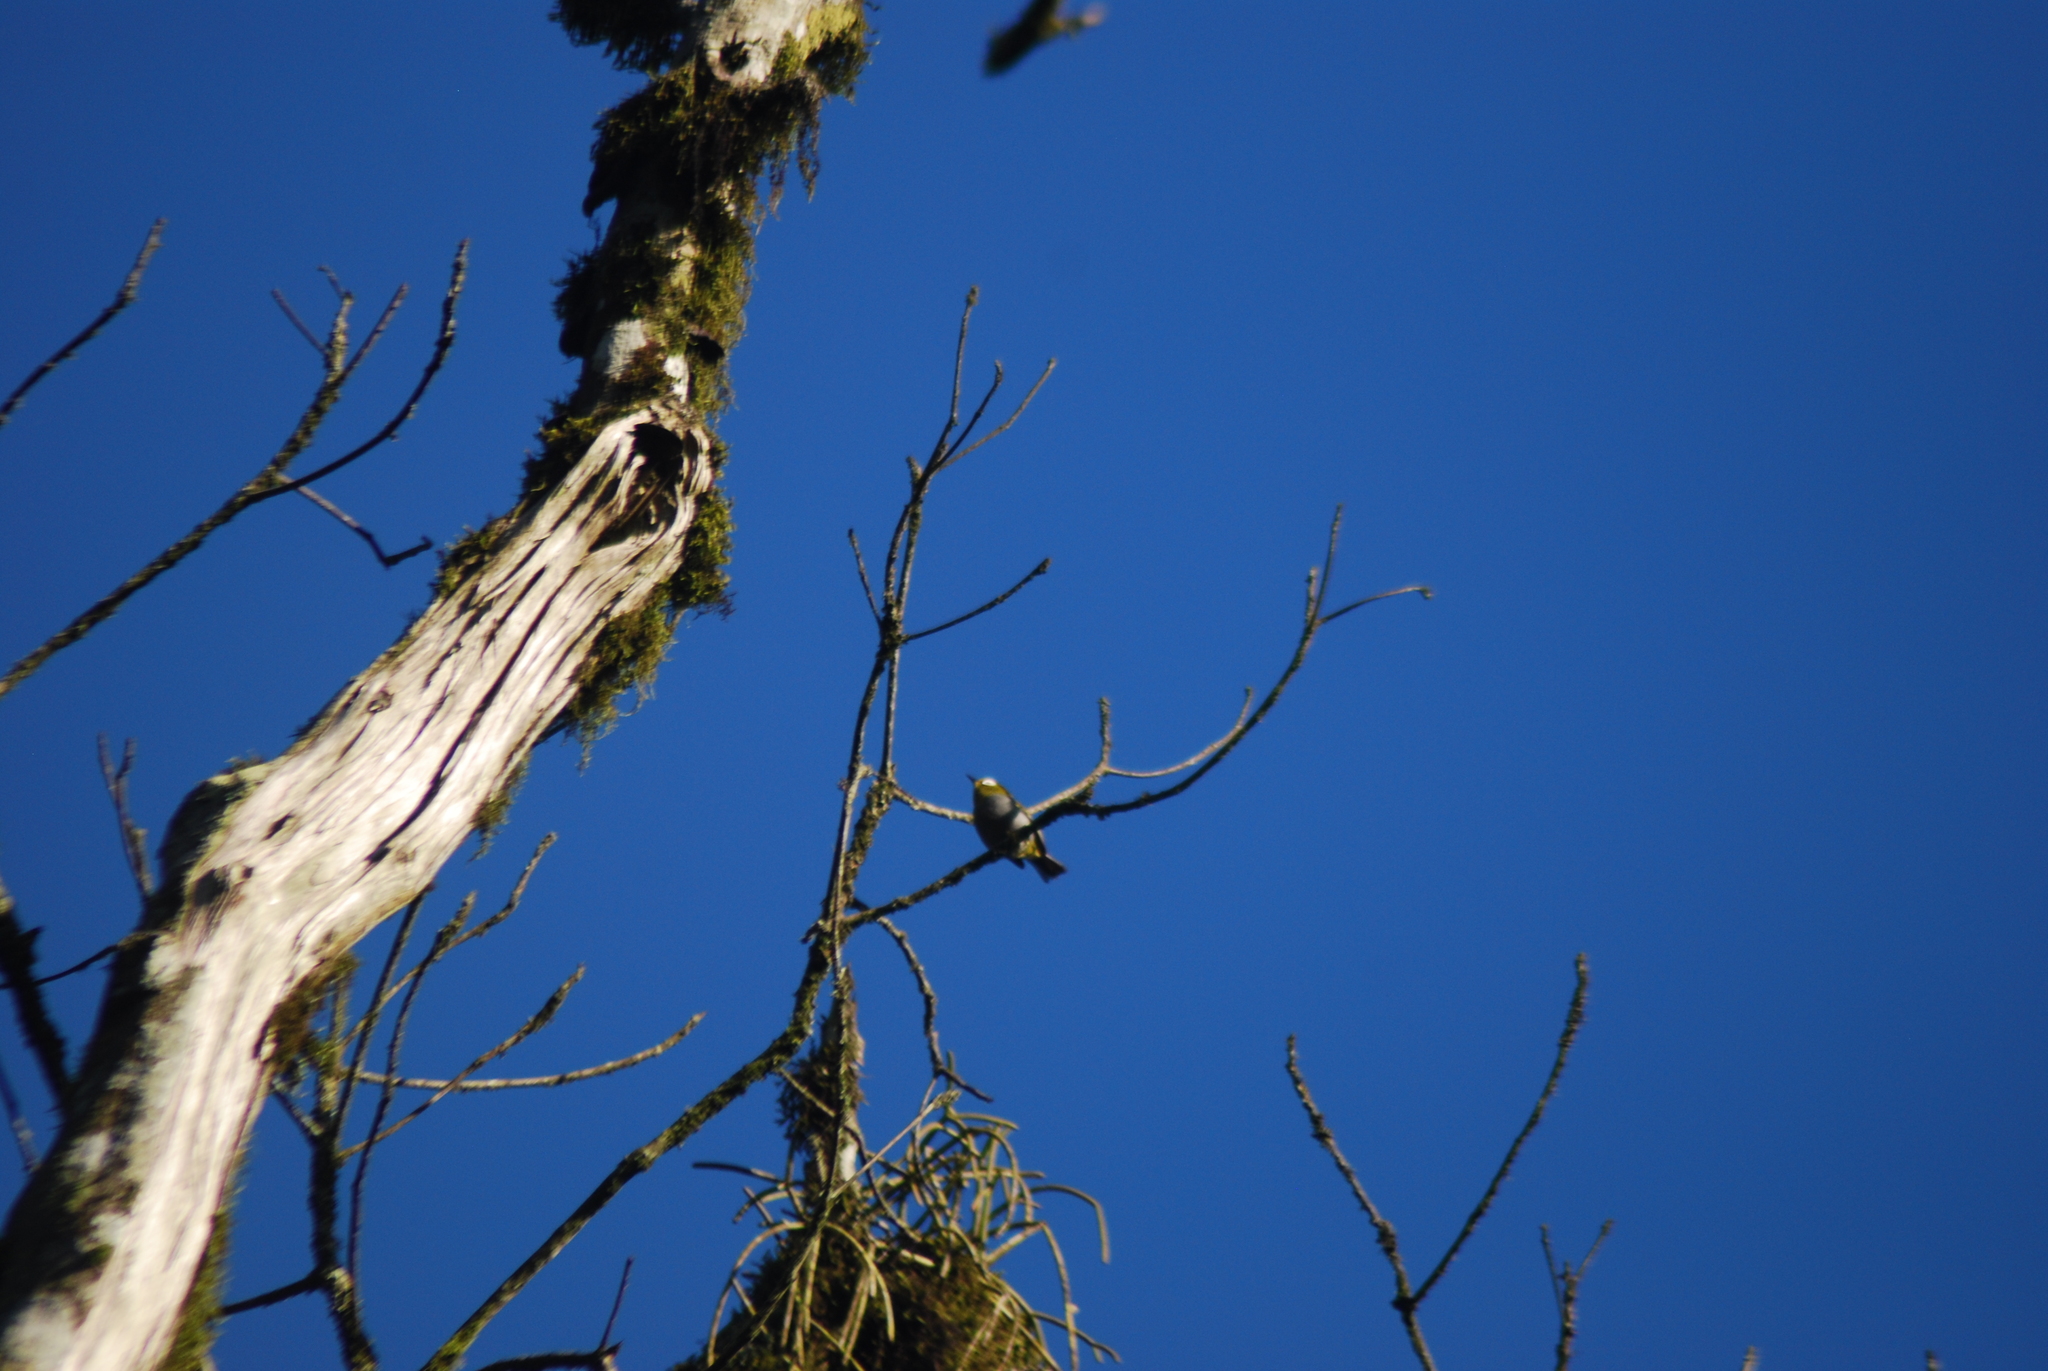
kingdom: Animalia
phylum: Chordata
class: Aves
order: Passeriformes
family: Zosteropidae
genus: Zosterops
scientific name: Zosterops silvanus
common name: Taita white-eye
